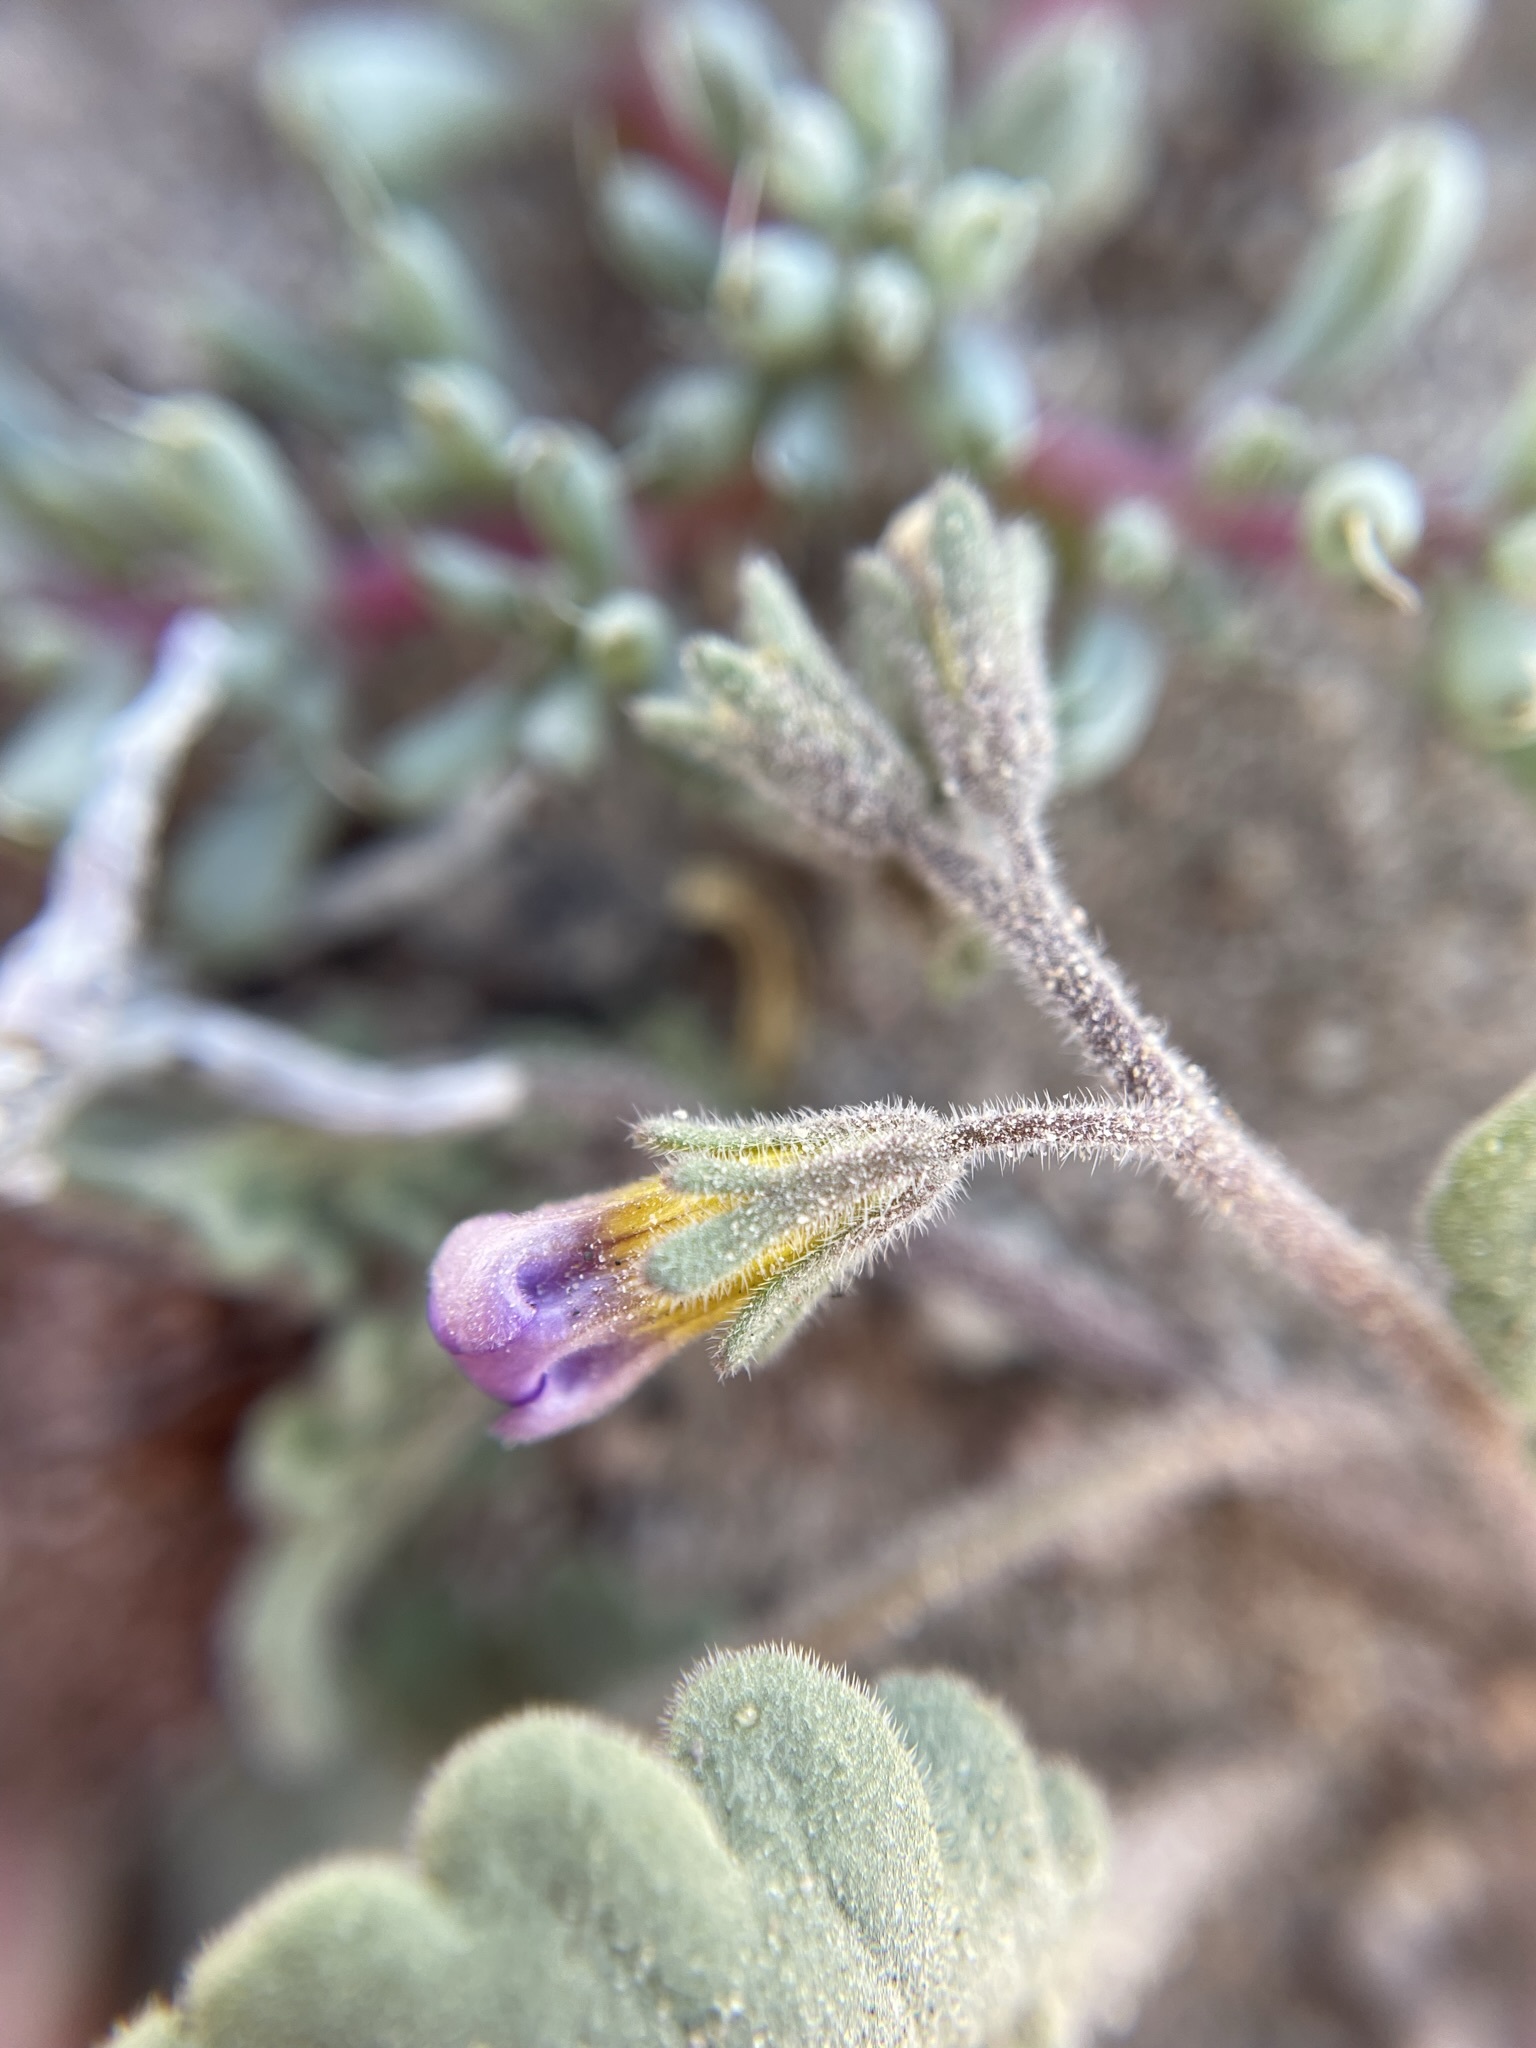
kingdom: Plantae
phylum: Tracheophyta
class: Magnoliopsida
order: Boraginales
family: Hydrophyllaceae
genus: Phacelia
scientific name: Phacelia gymnoclada
